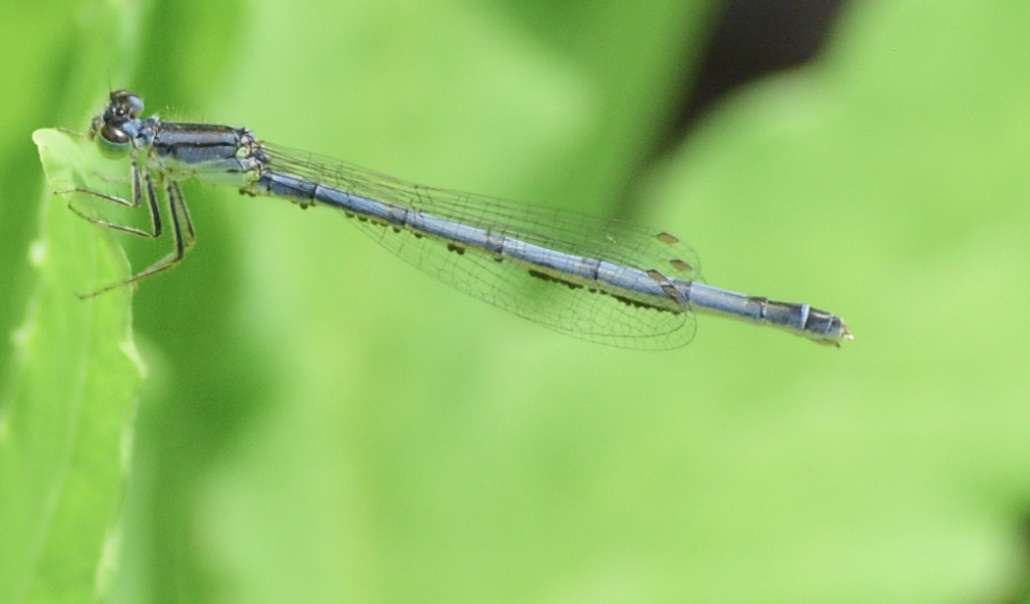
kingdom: Animalia
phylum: Arthropoda
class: Insecta
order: Odonata
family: Coenagrionidae
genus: Ischnura
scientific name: Ischnura verticalis
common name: Eastern forktail
